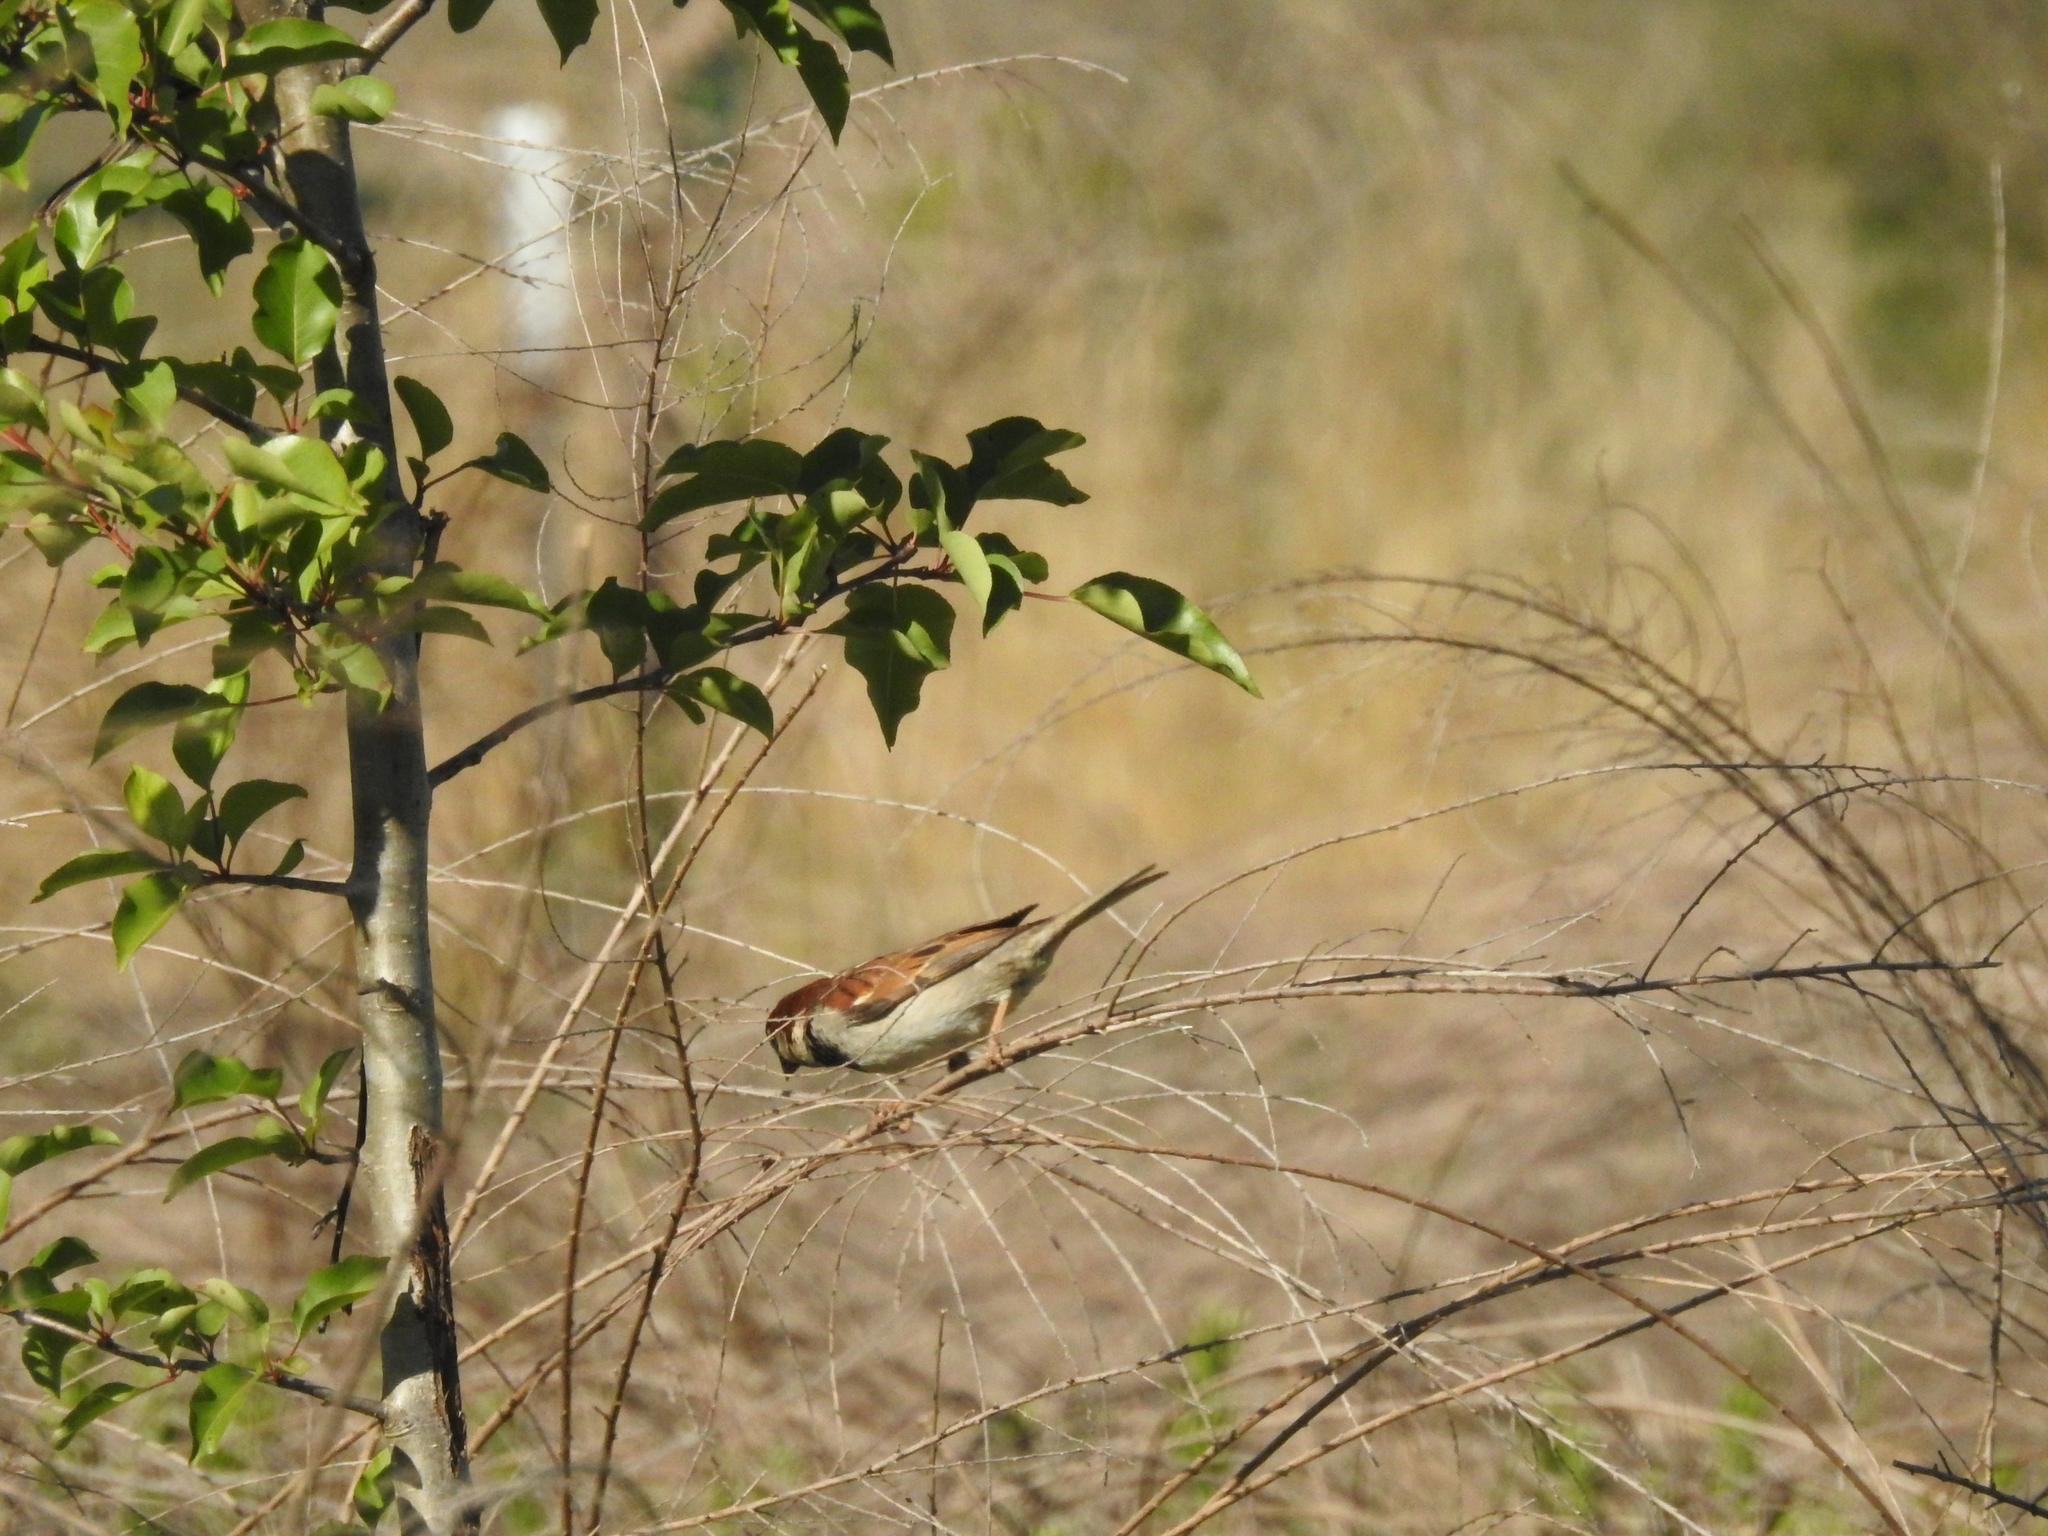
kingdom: Animalia
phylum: Chordata
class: Aves
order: Passeriformes
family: Passeridae
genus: Passer
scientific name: Passer domesticus
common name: House sparrow
